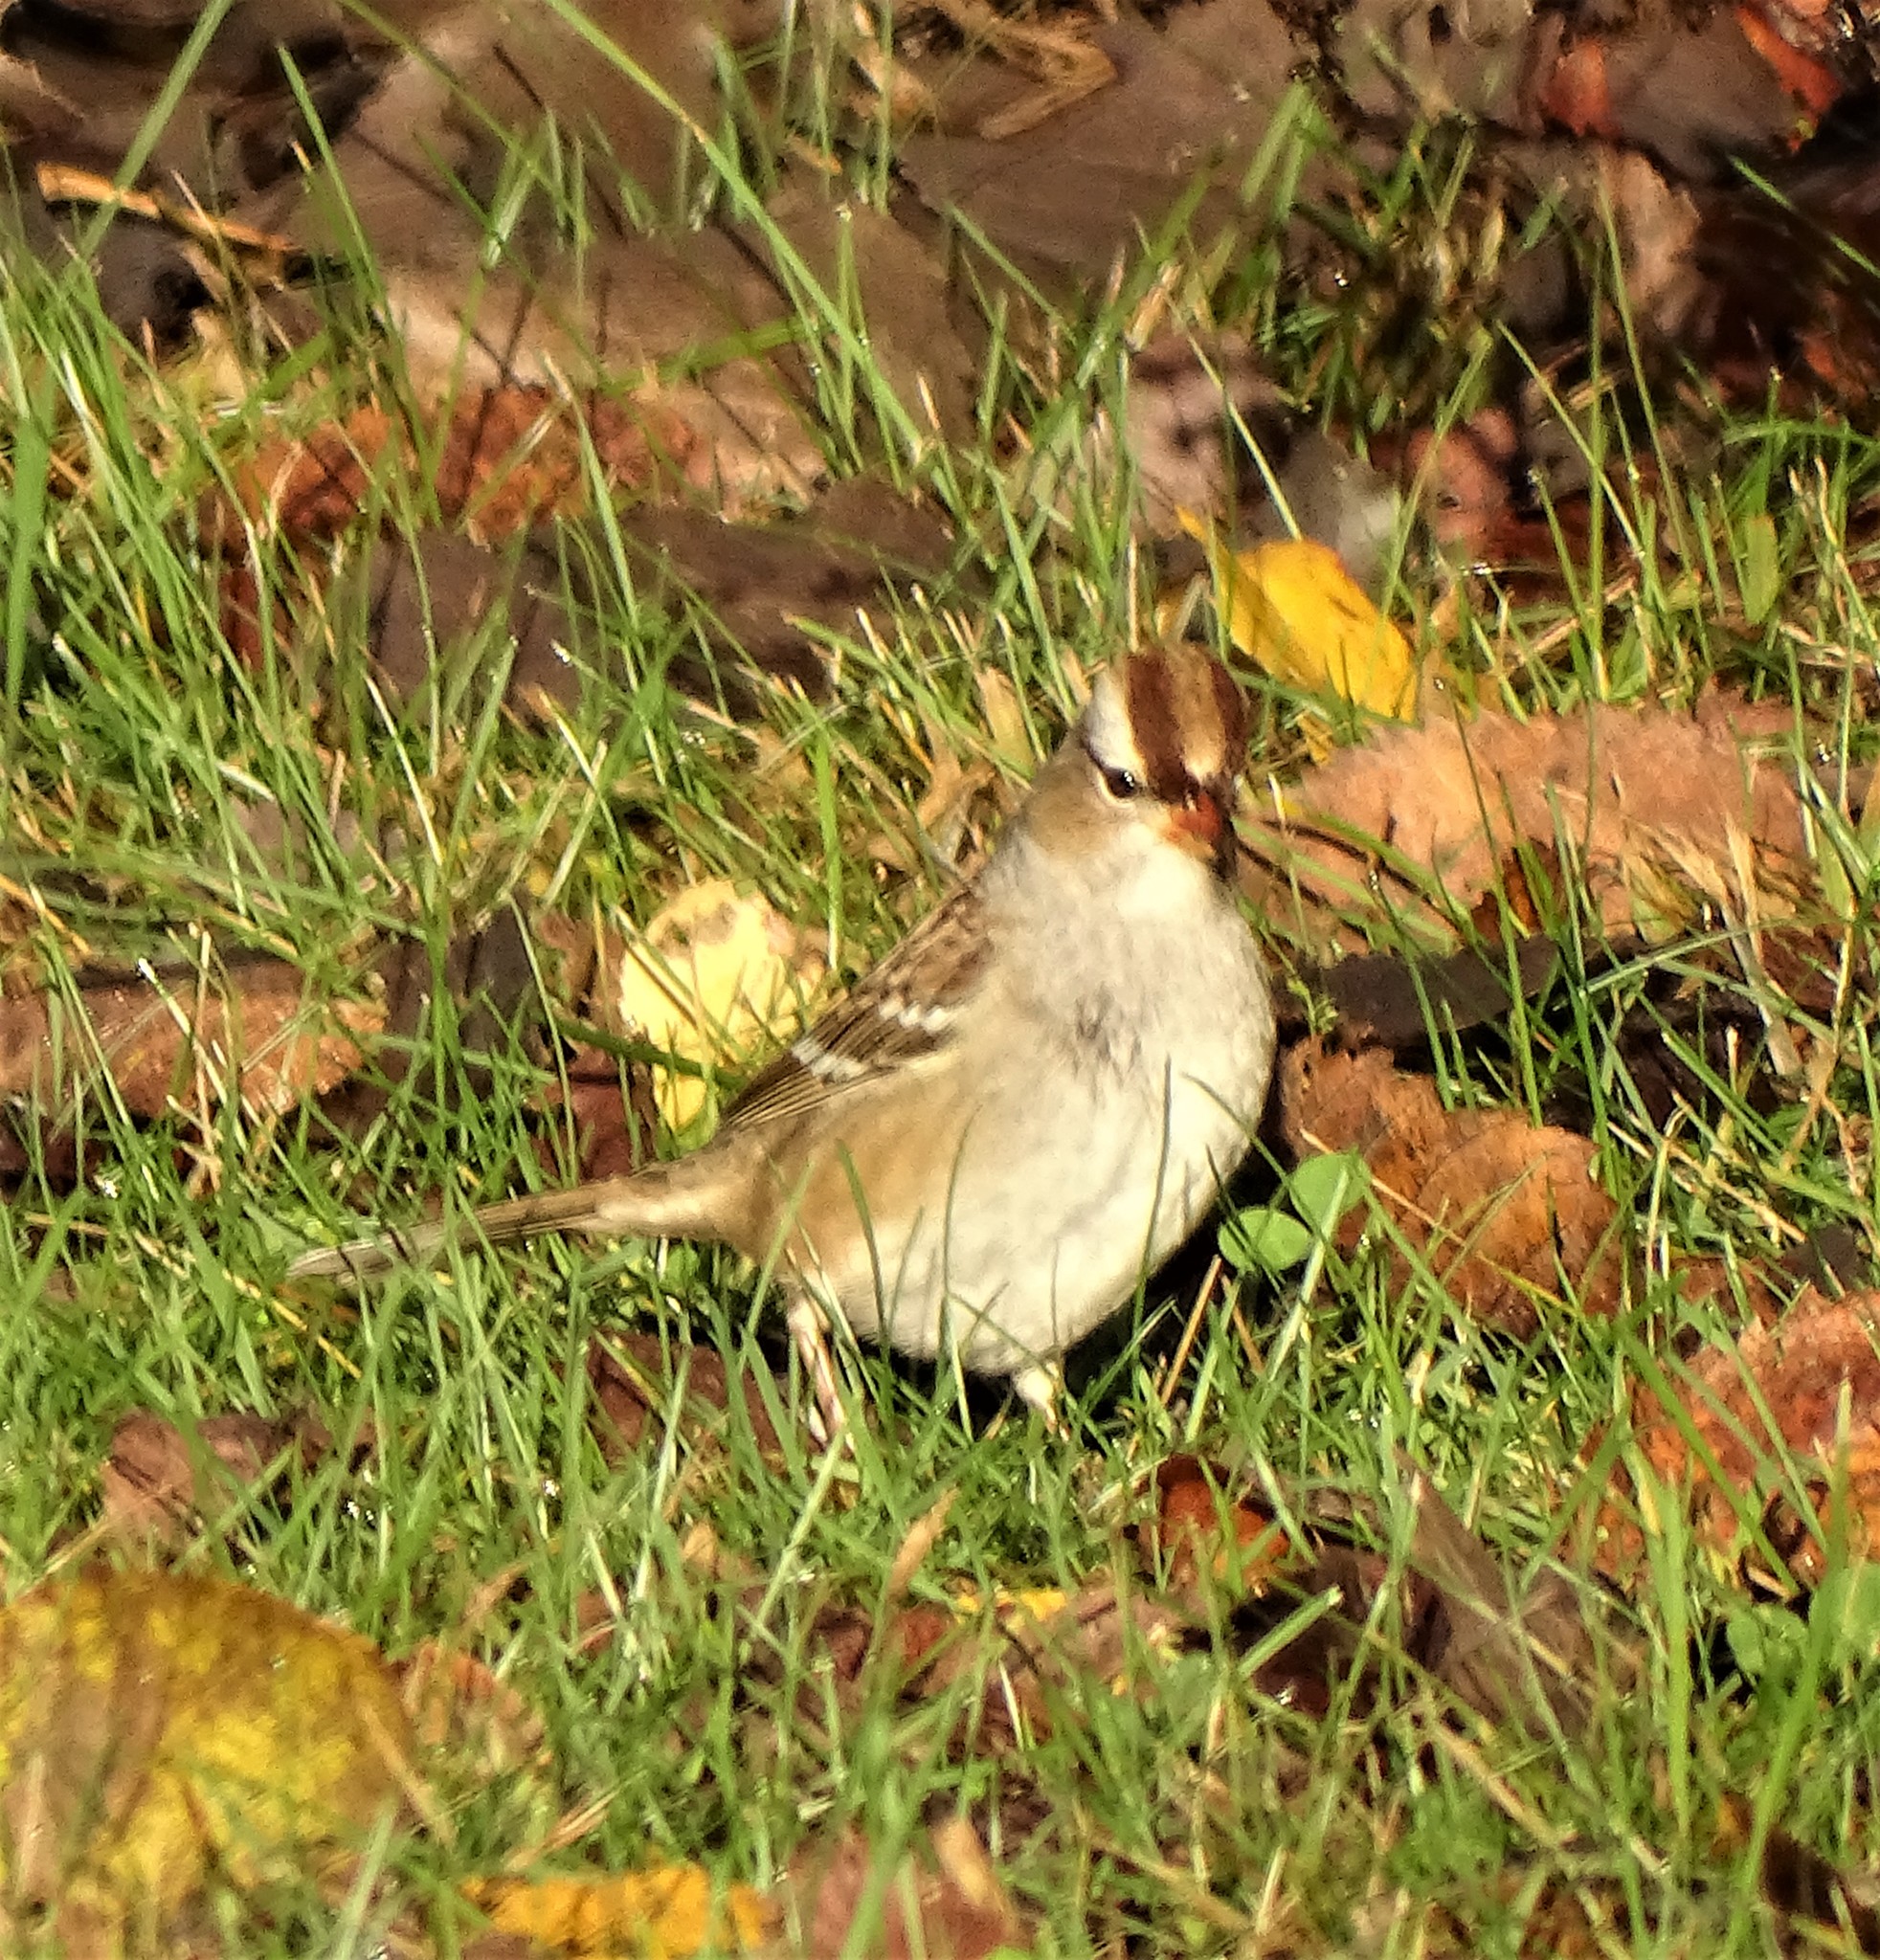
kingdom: Animalia
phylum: Chordata
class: Aves
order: Passeriformes
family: Passerellidae
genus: Zonotrichia
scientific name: Zonotrichia leucophrys
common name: White-crowned sparrow
